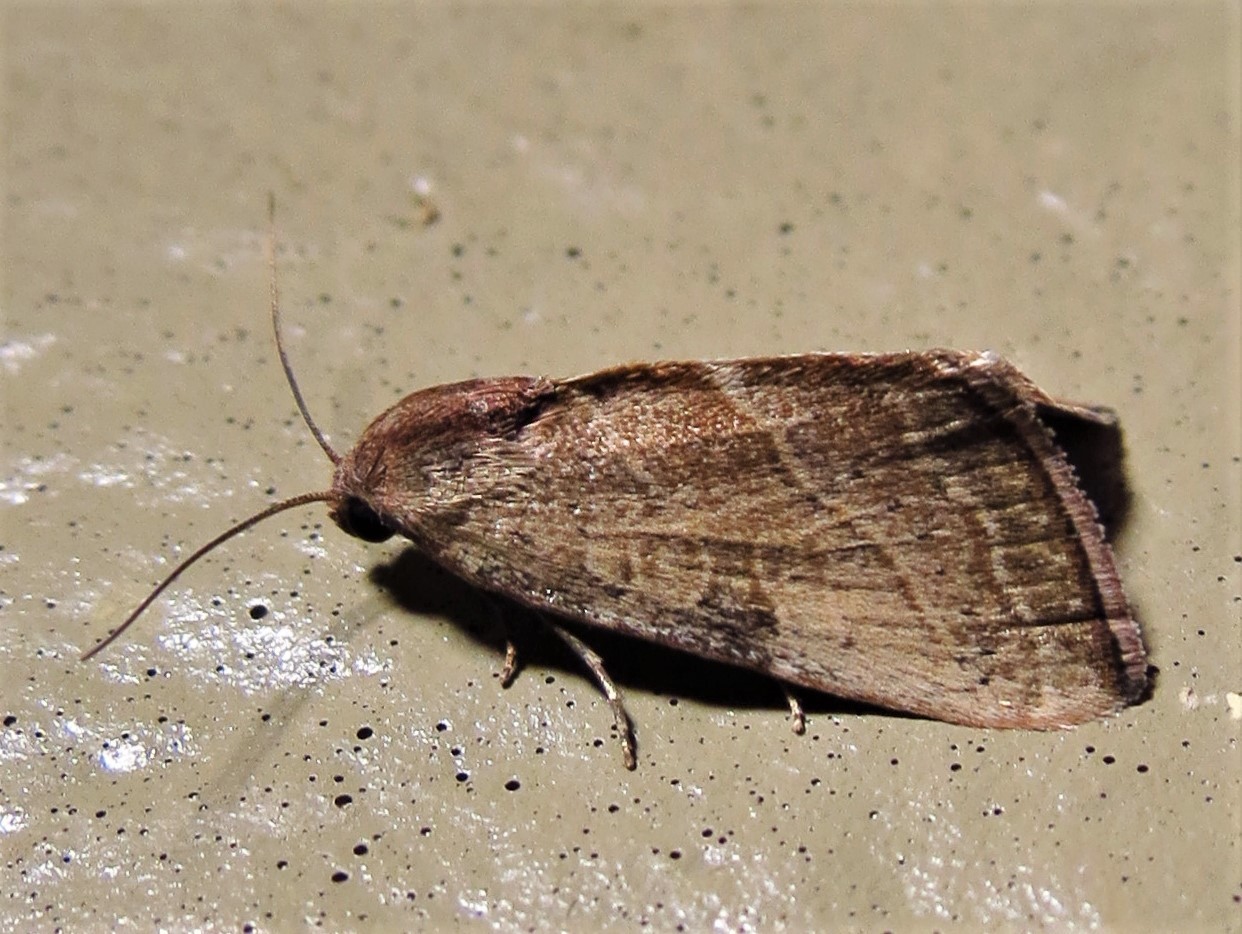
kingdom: Animalia
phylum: Arthropoda
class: Insecta
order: Lepidoptera
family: Noctuidae
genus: Galgula
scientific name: Galgula partita
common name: Wedgeling
